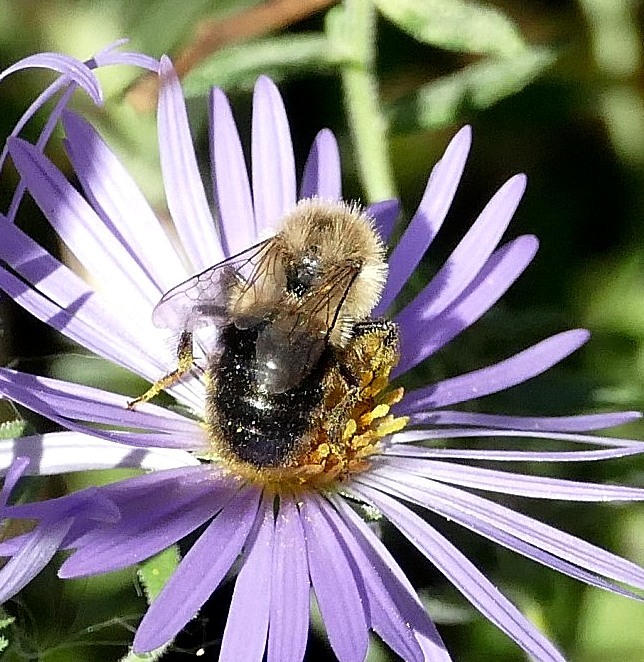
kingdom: Animalia
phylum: Arthropoda
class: Insecta
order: Hymenoptera
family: Apidae
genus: Bombus
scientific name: Bombus impatiens
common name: Common eastern bumble bee
